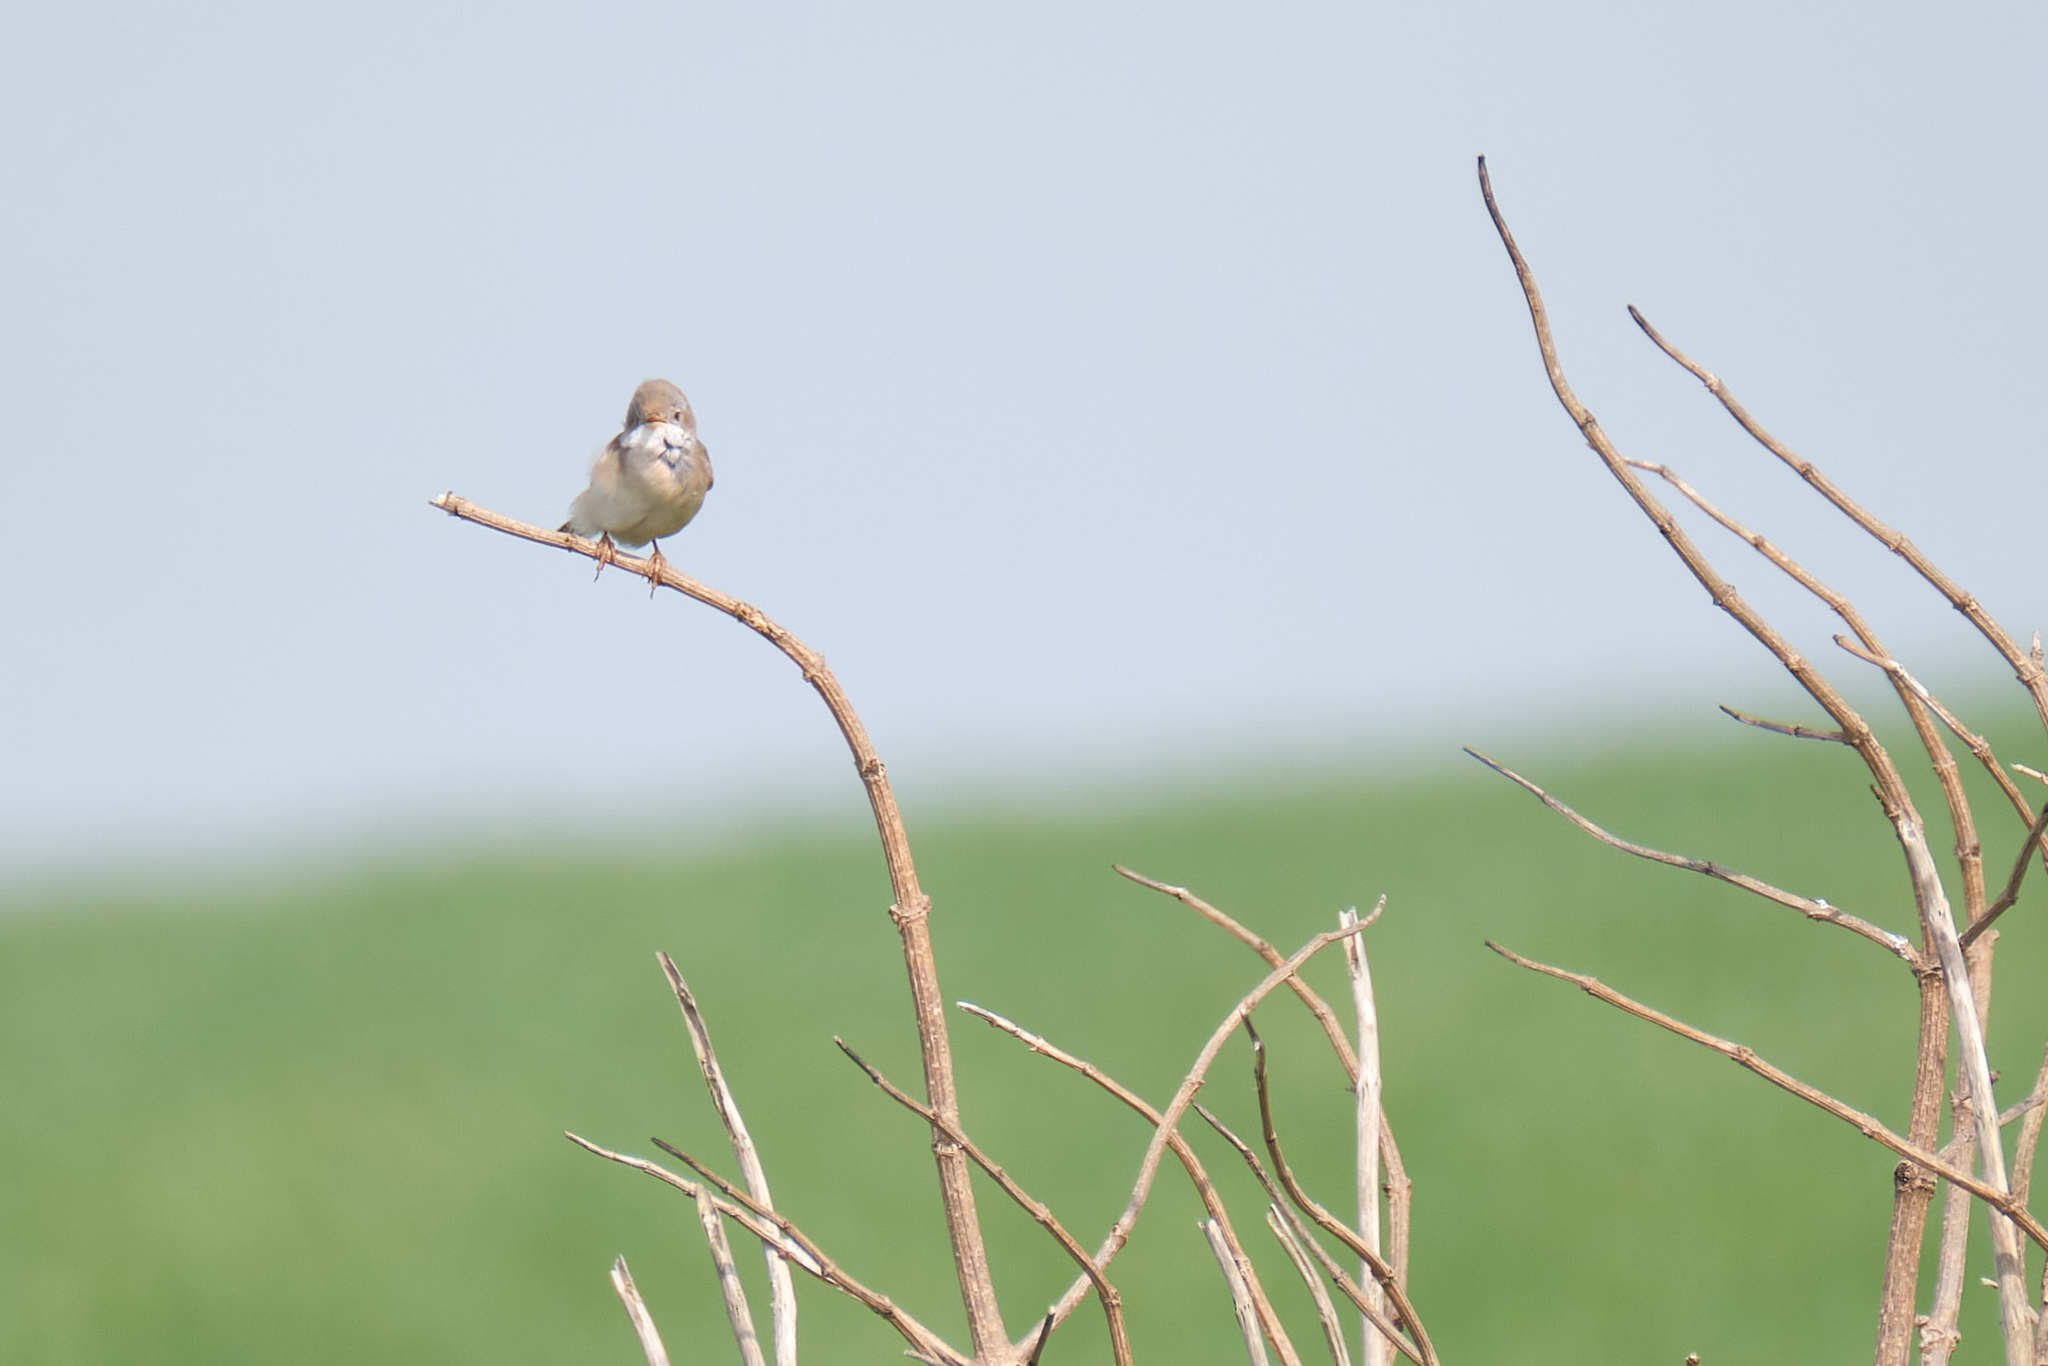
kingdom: Animalia
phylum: Chordata
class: Aves
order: Passeriformes
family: Sylviidae
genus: Sylvia
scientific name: Sylvia communis
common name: Common whitethroat
